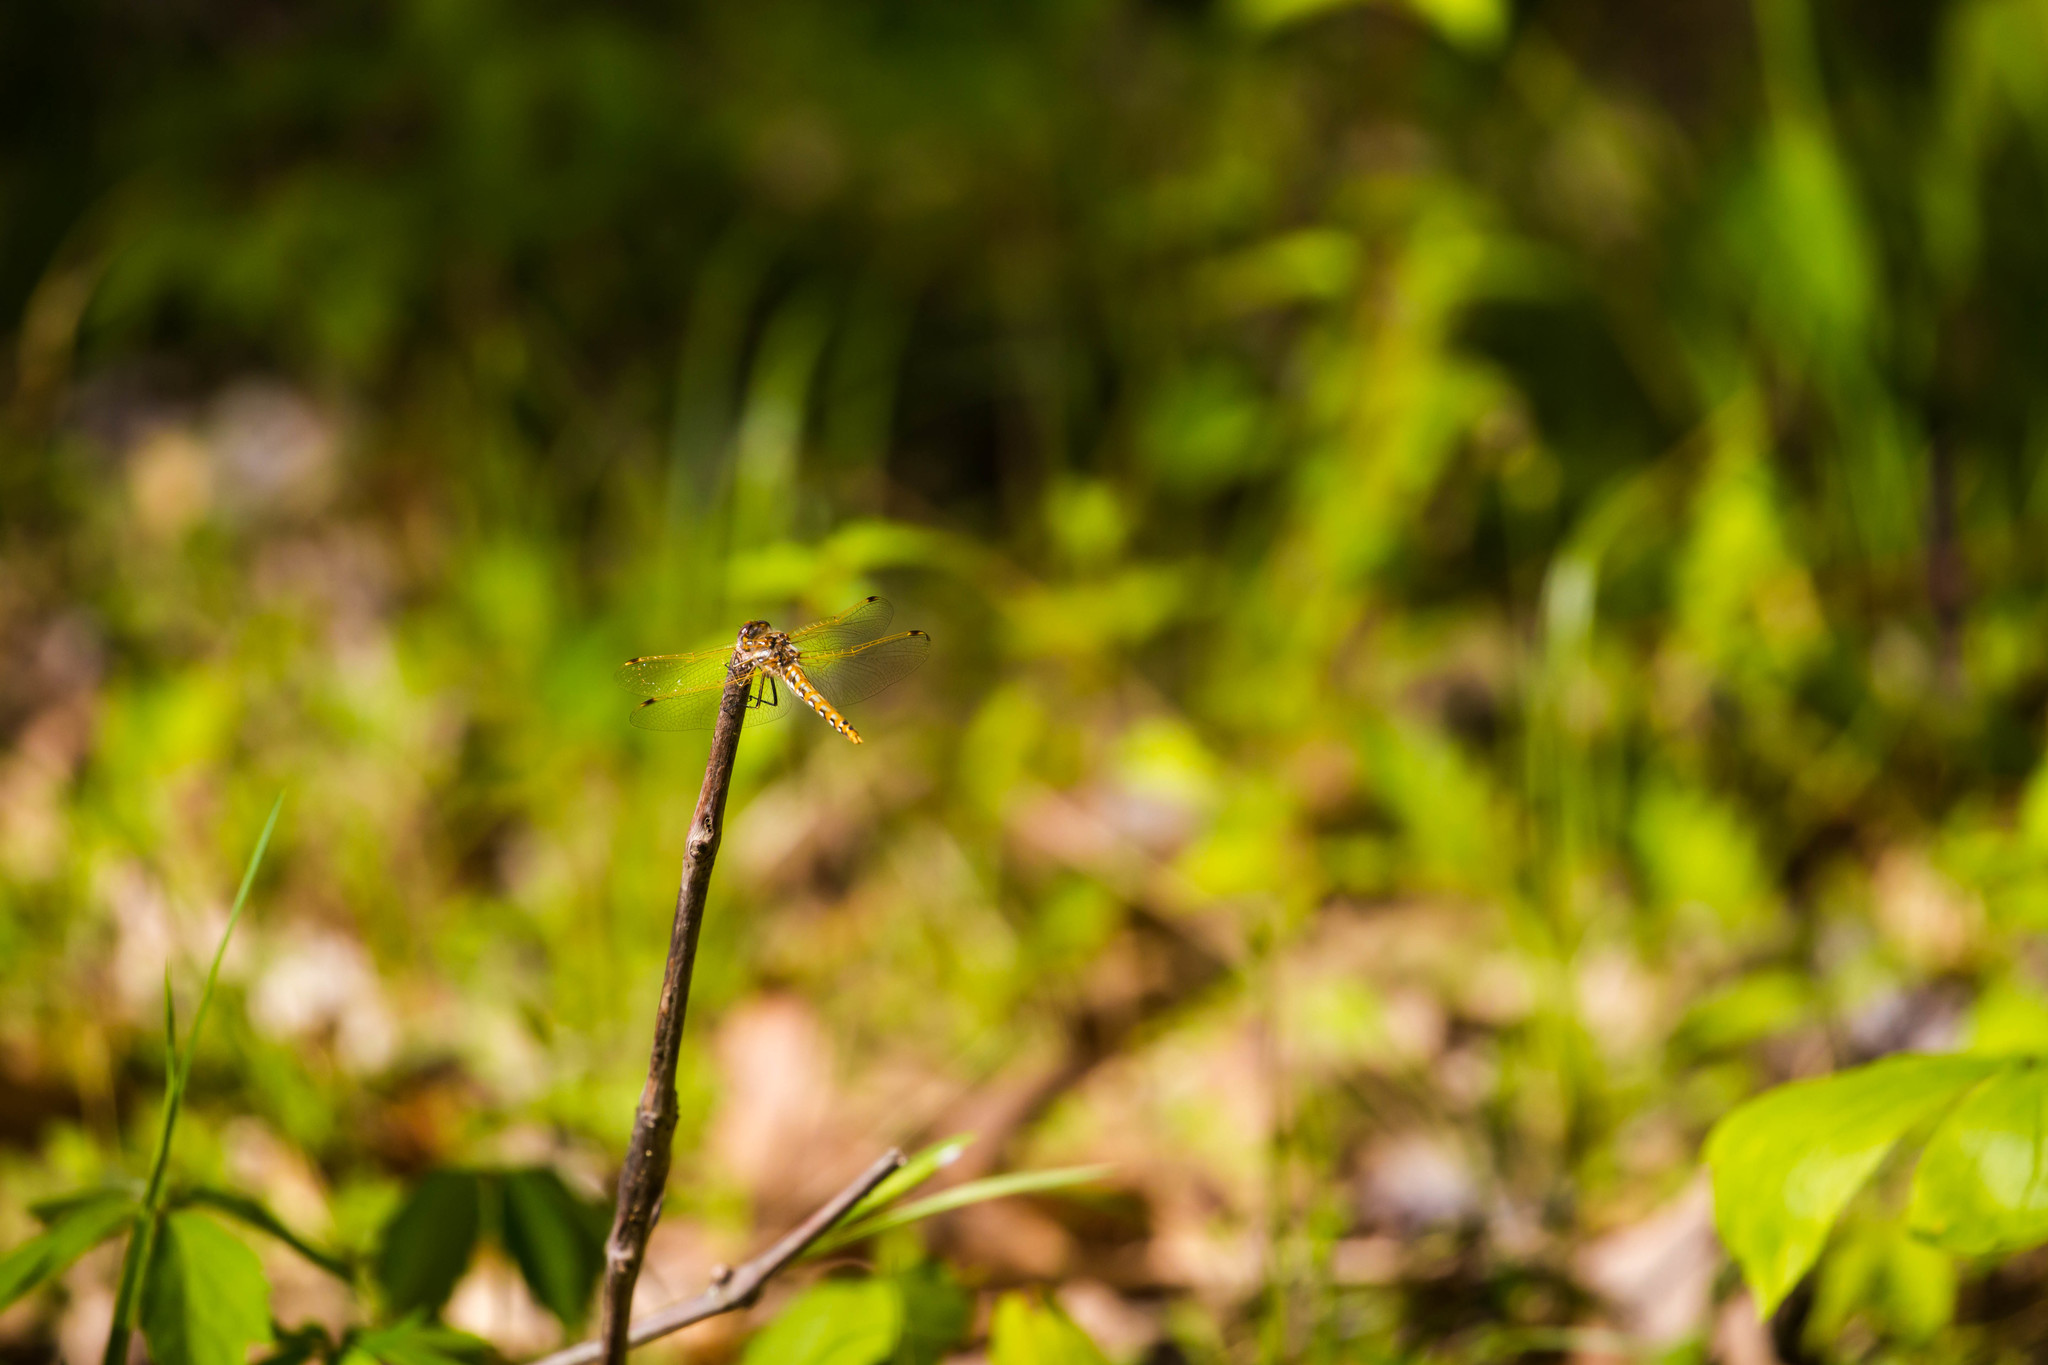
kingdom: Animalia
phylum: Arthropoda
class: Insecta
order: Odonata
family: Libellulidae
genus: Sympetrum
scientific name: Sympetrum corruptum
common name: Variegated meadowhawk
